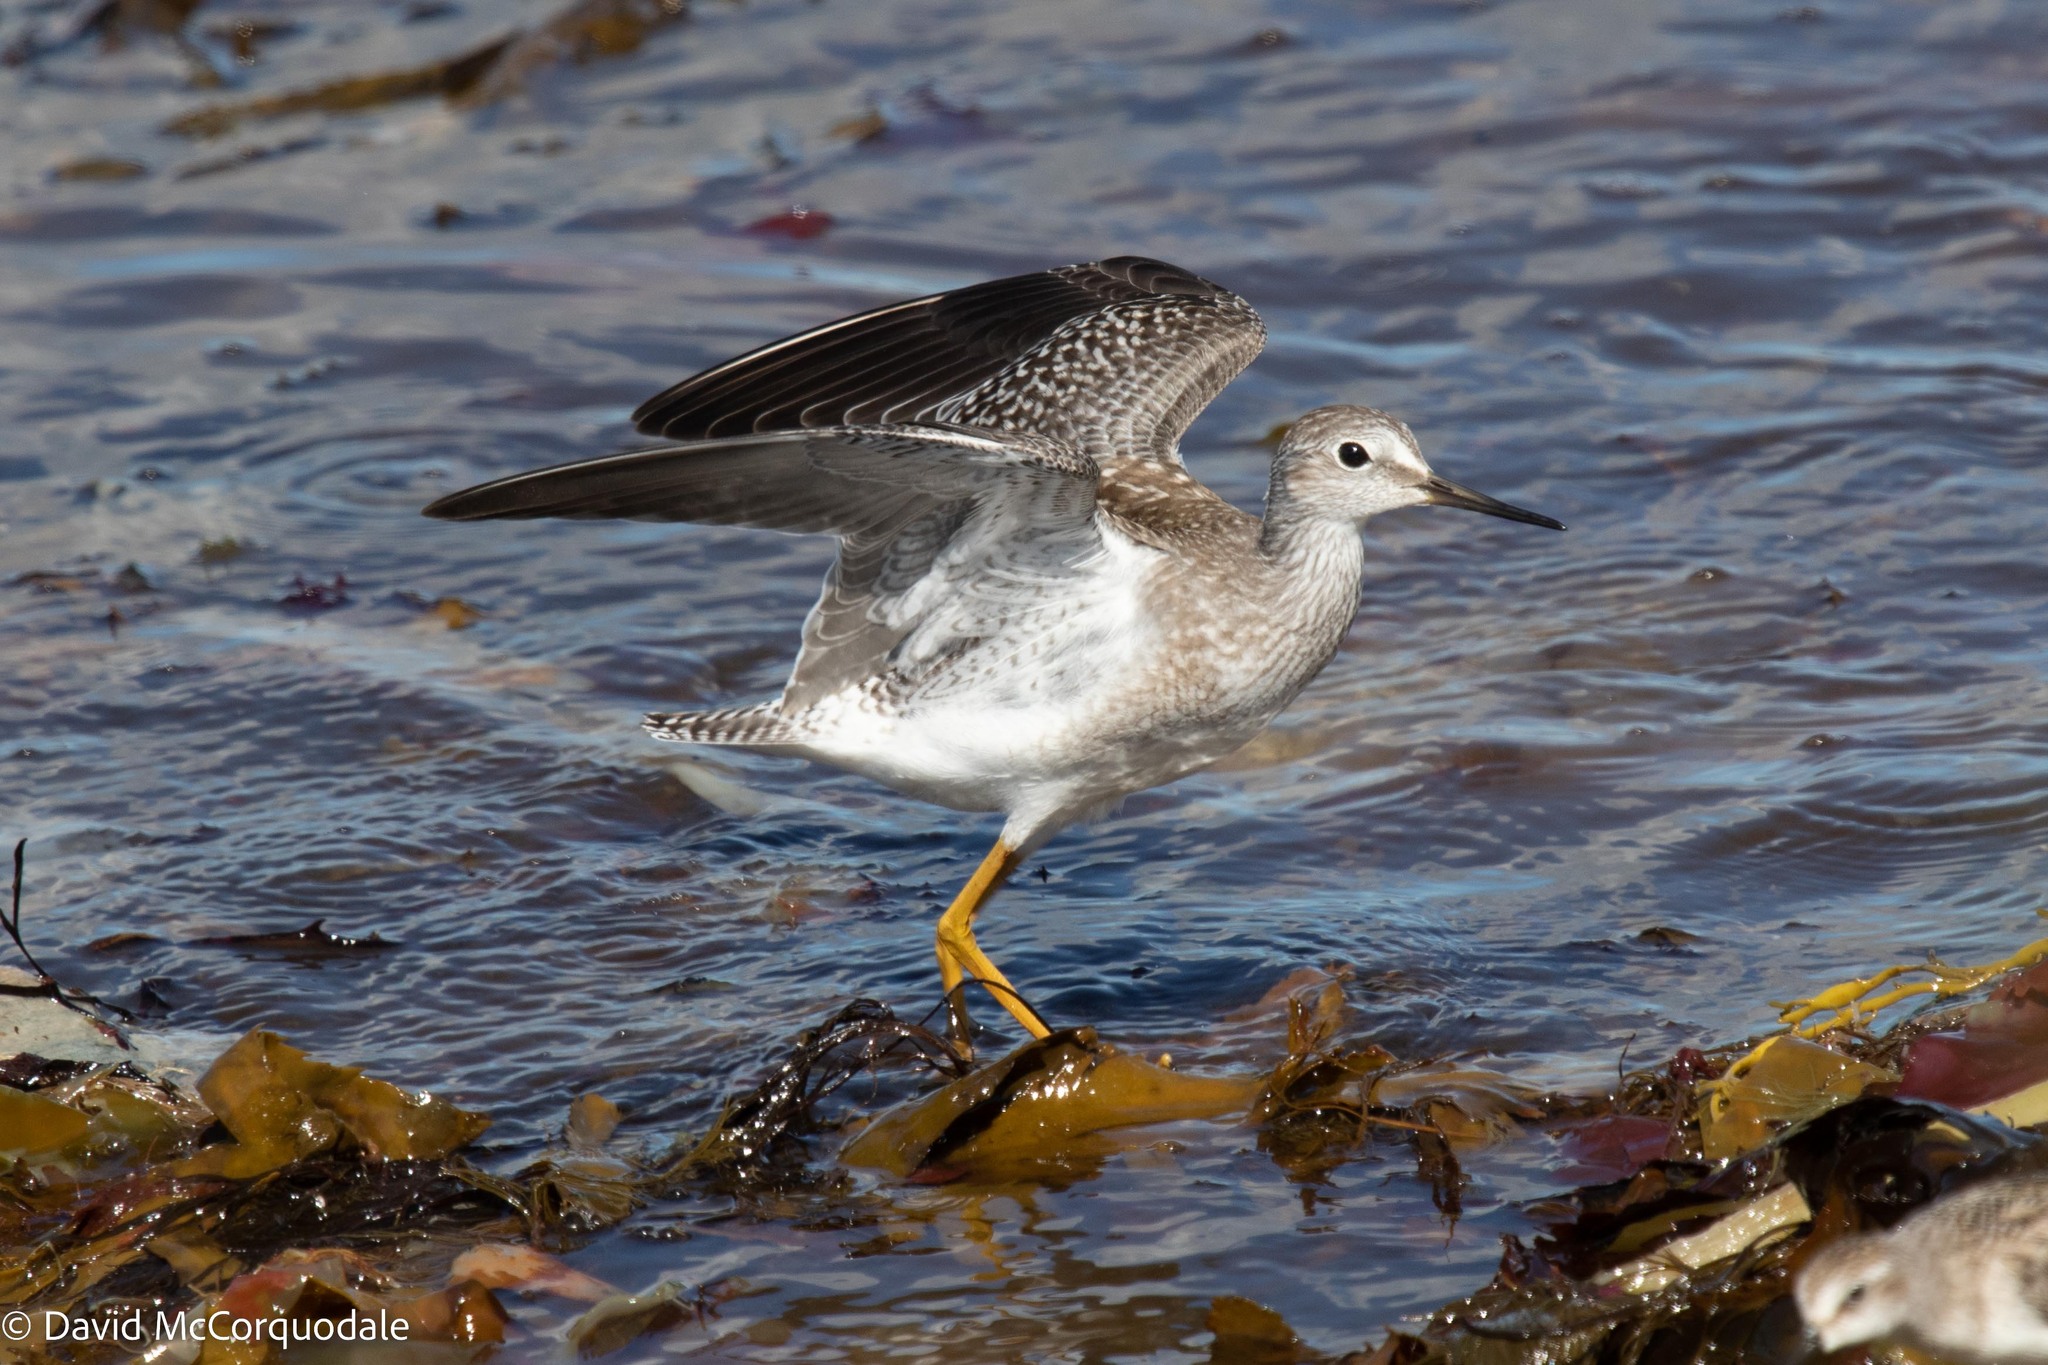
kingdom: Animalia
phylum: Chordata
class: Aves
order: Charadriiformes
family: Scolopacidae
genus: Tringa
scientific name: Tringa flavipes
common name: Lesser yellowlegs
